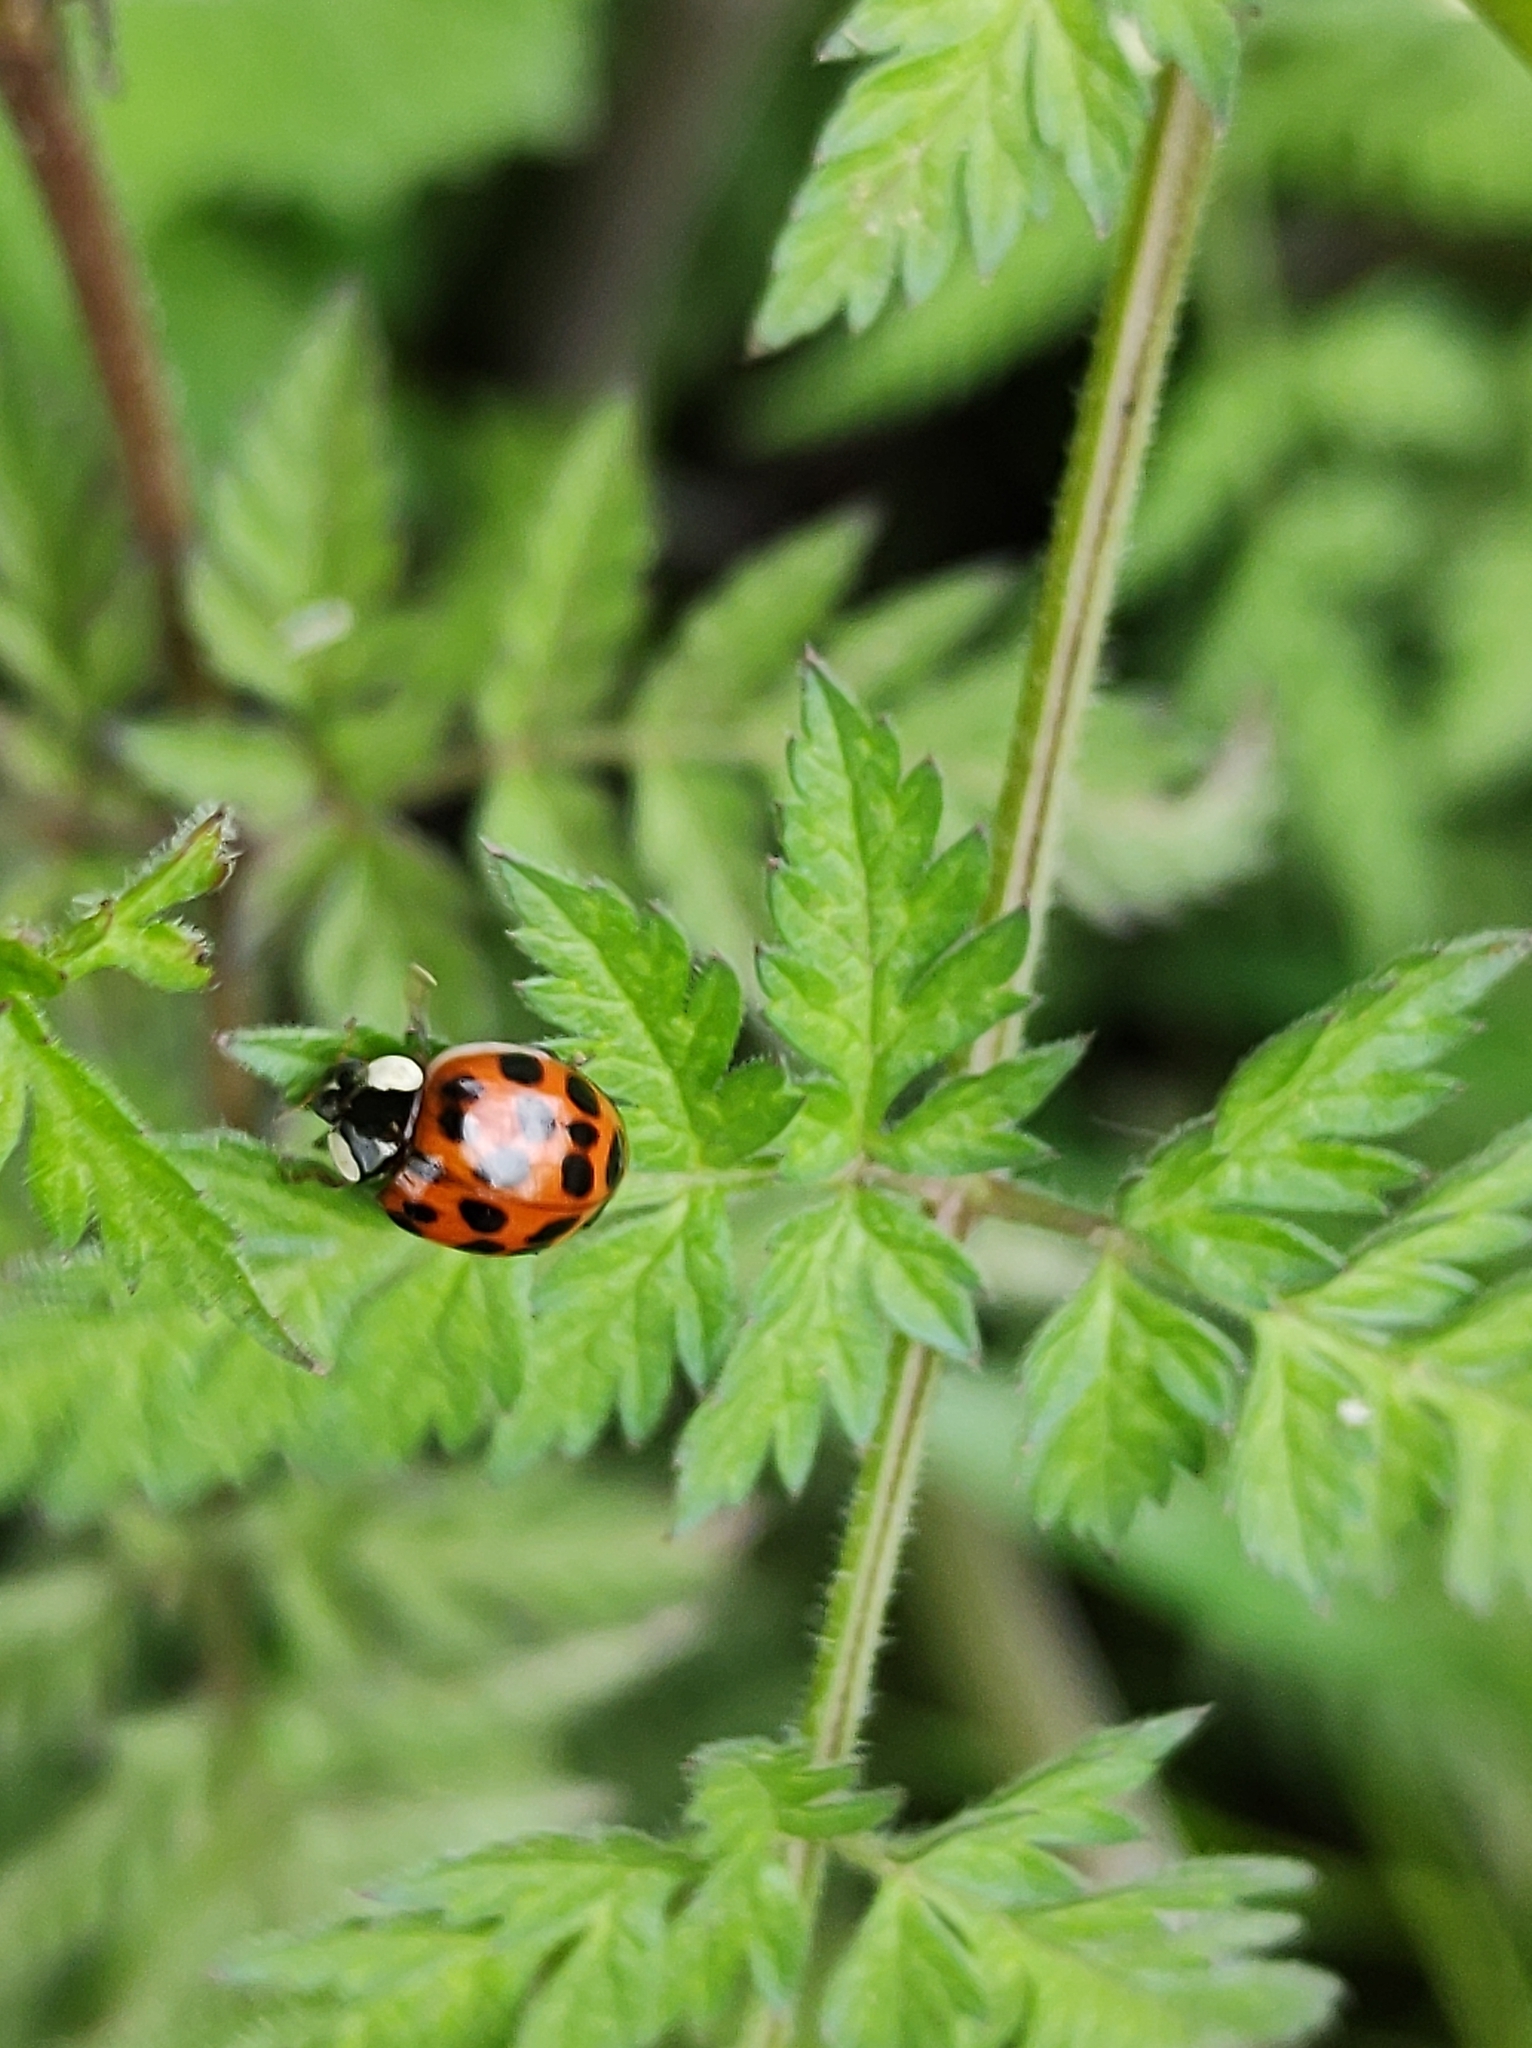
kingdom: Animalia
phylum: Arthropoda
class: Insecta
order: Coleoptera
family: Coccinellidae
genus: Harmonia
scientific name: Harmonia axyridis
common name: Harlequin ladybird
